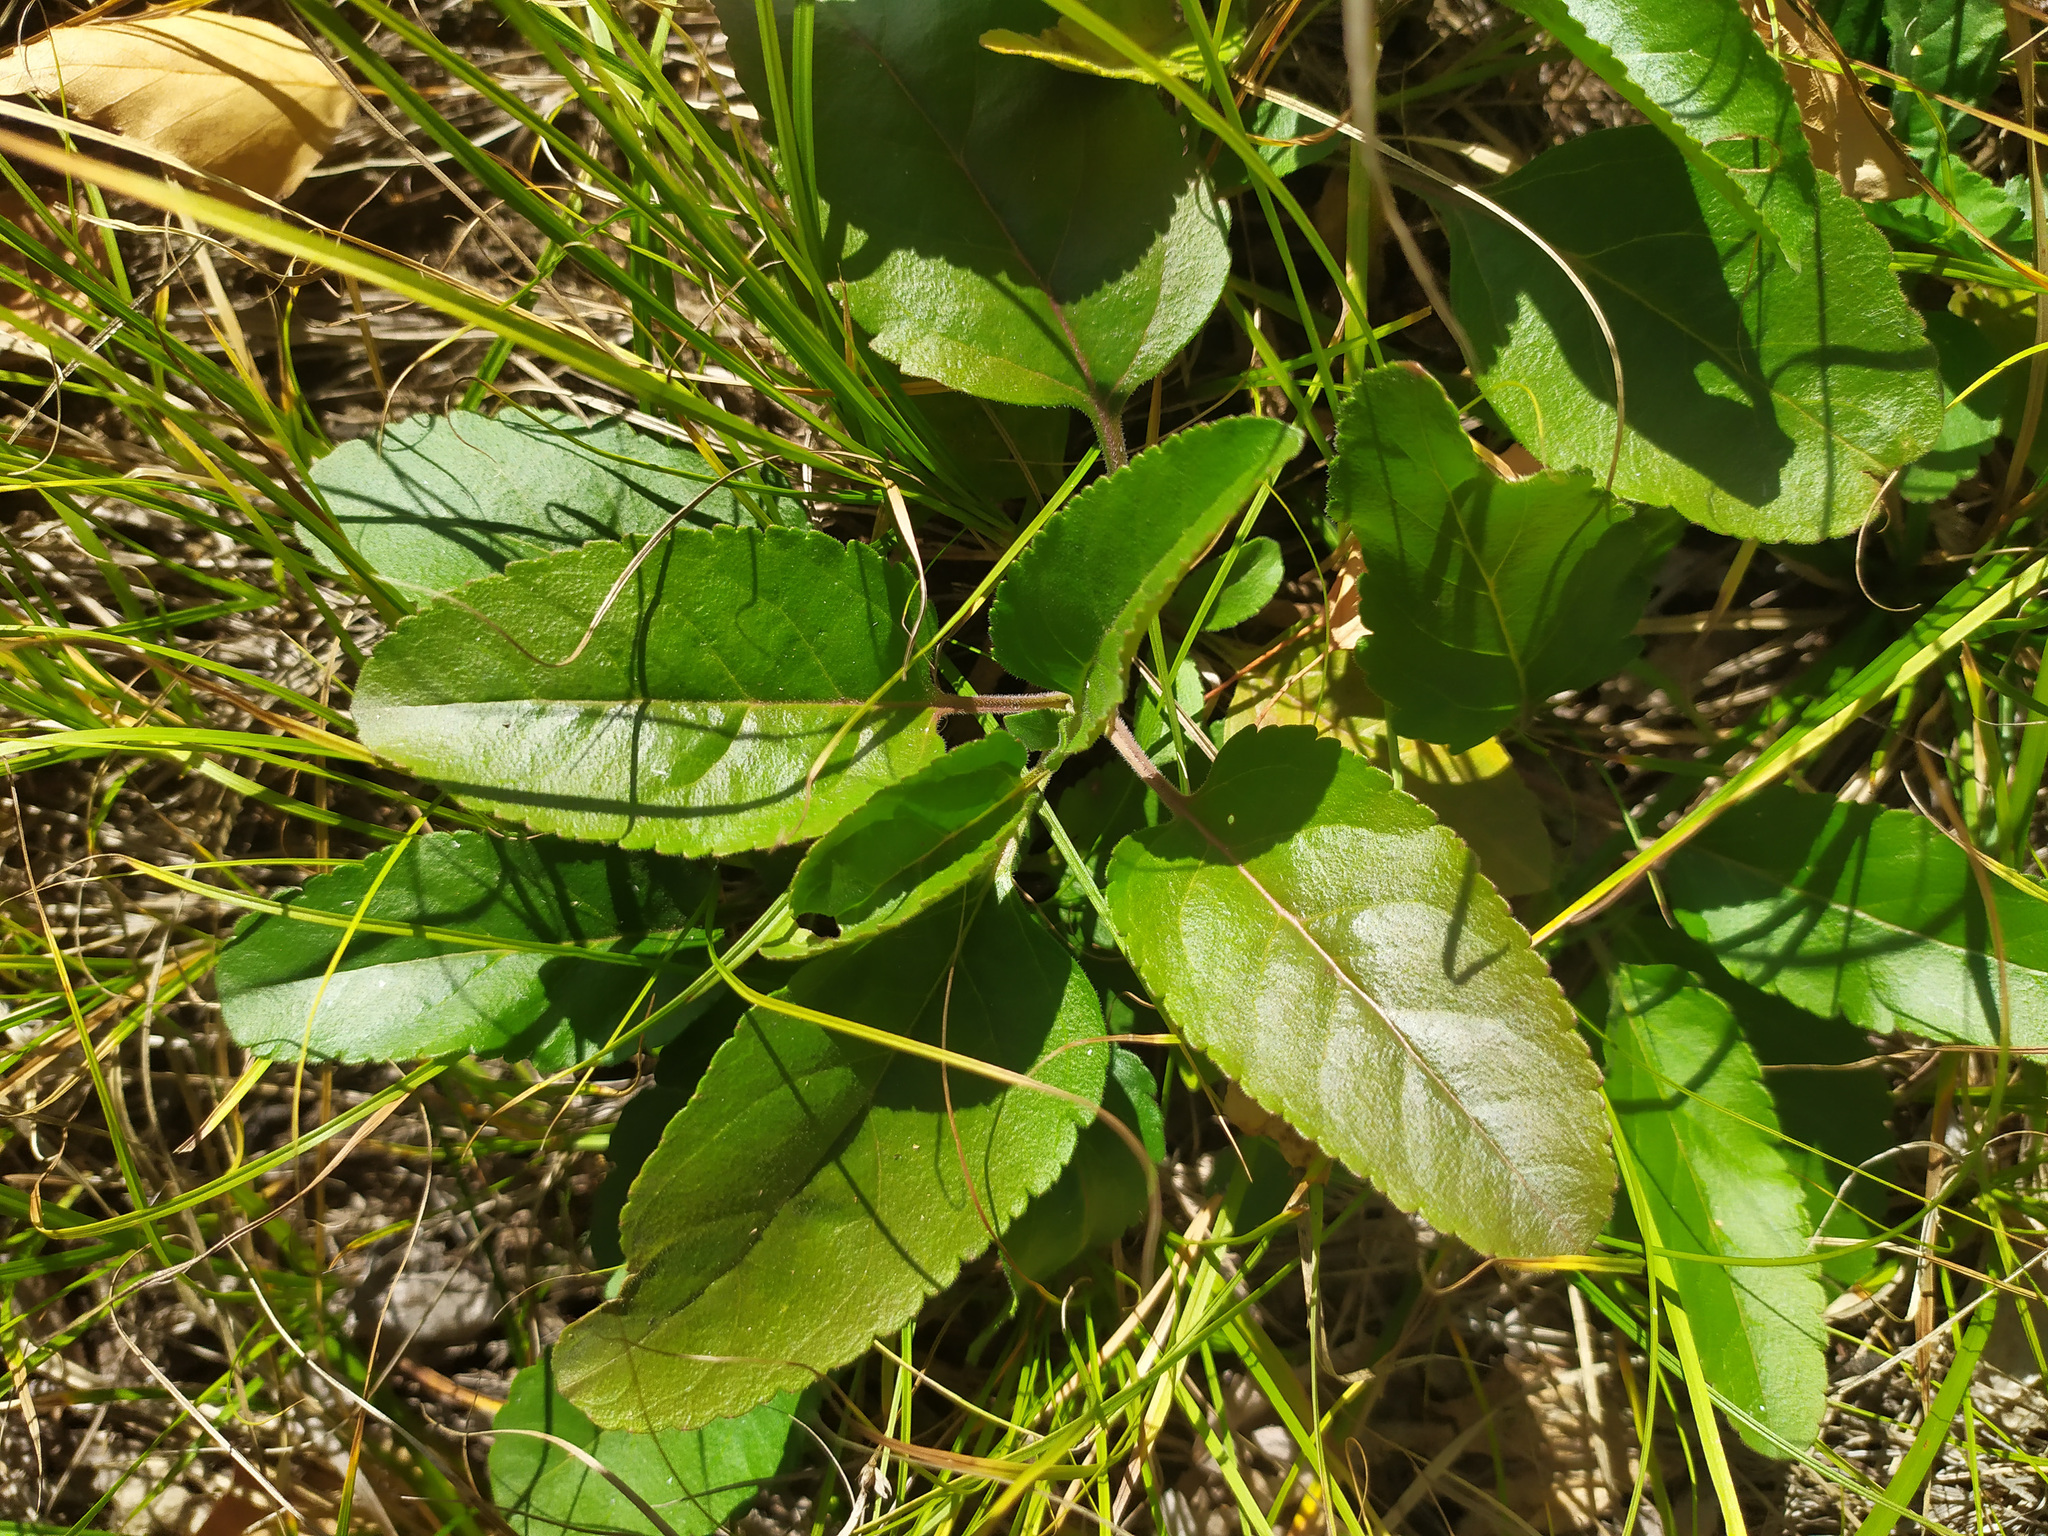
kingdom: Plantae
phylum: Tracheophyta
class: Magnoliopsida
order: Lamiales
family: Plantaginaceae
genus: Veronica
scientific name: Veronica spicata
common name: Spiked speedwell
